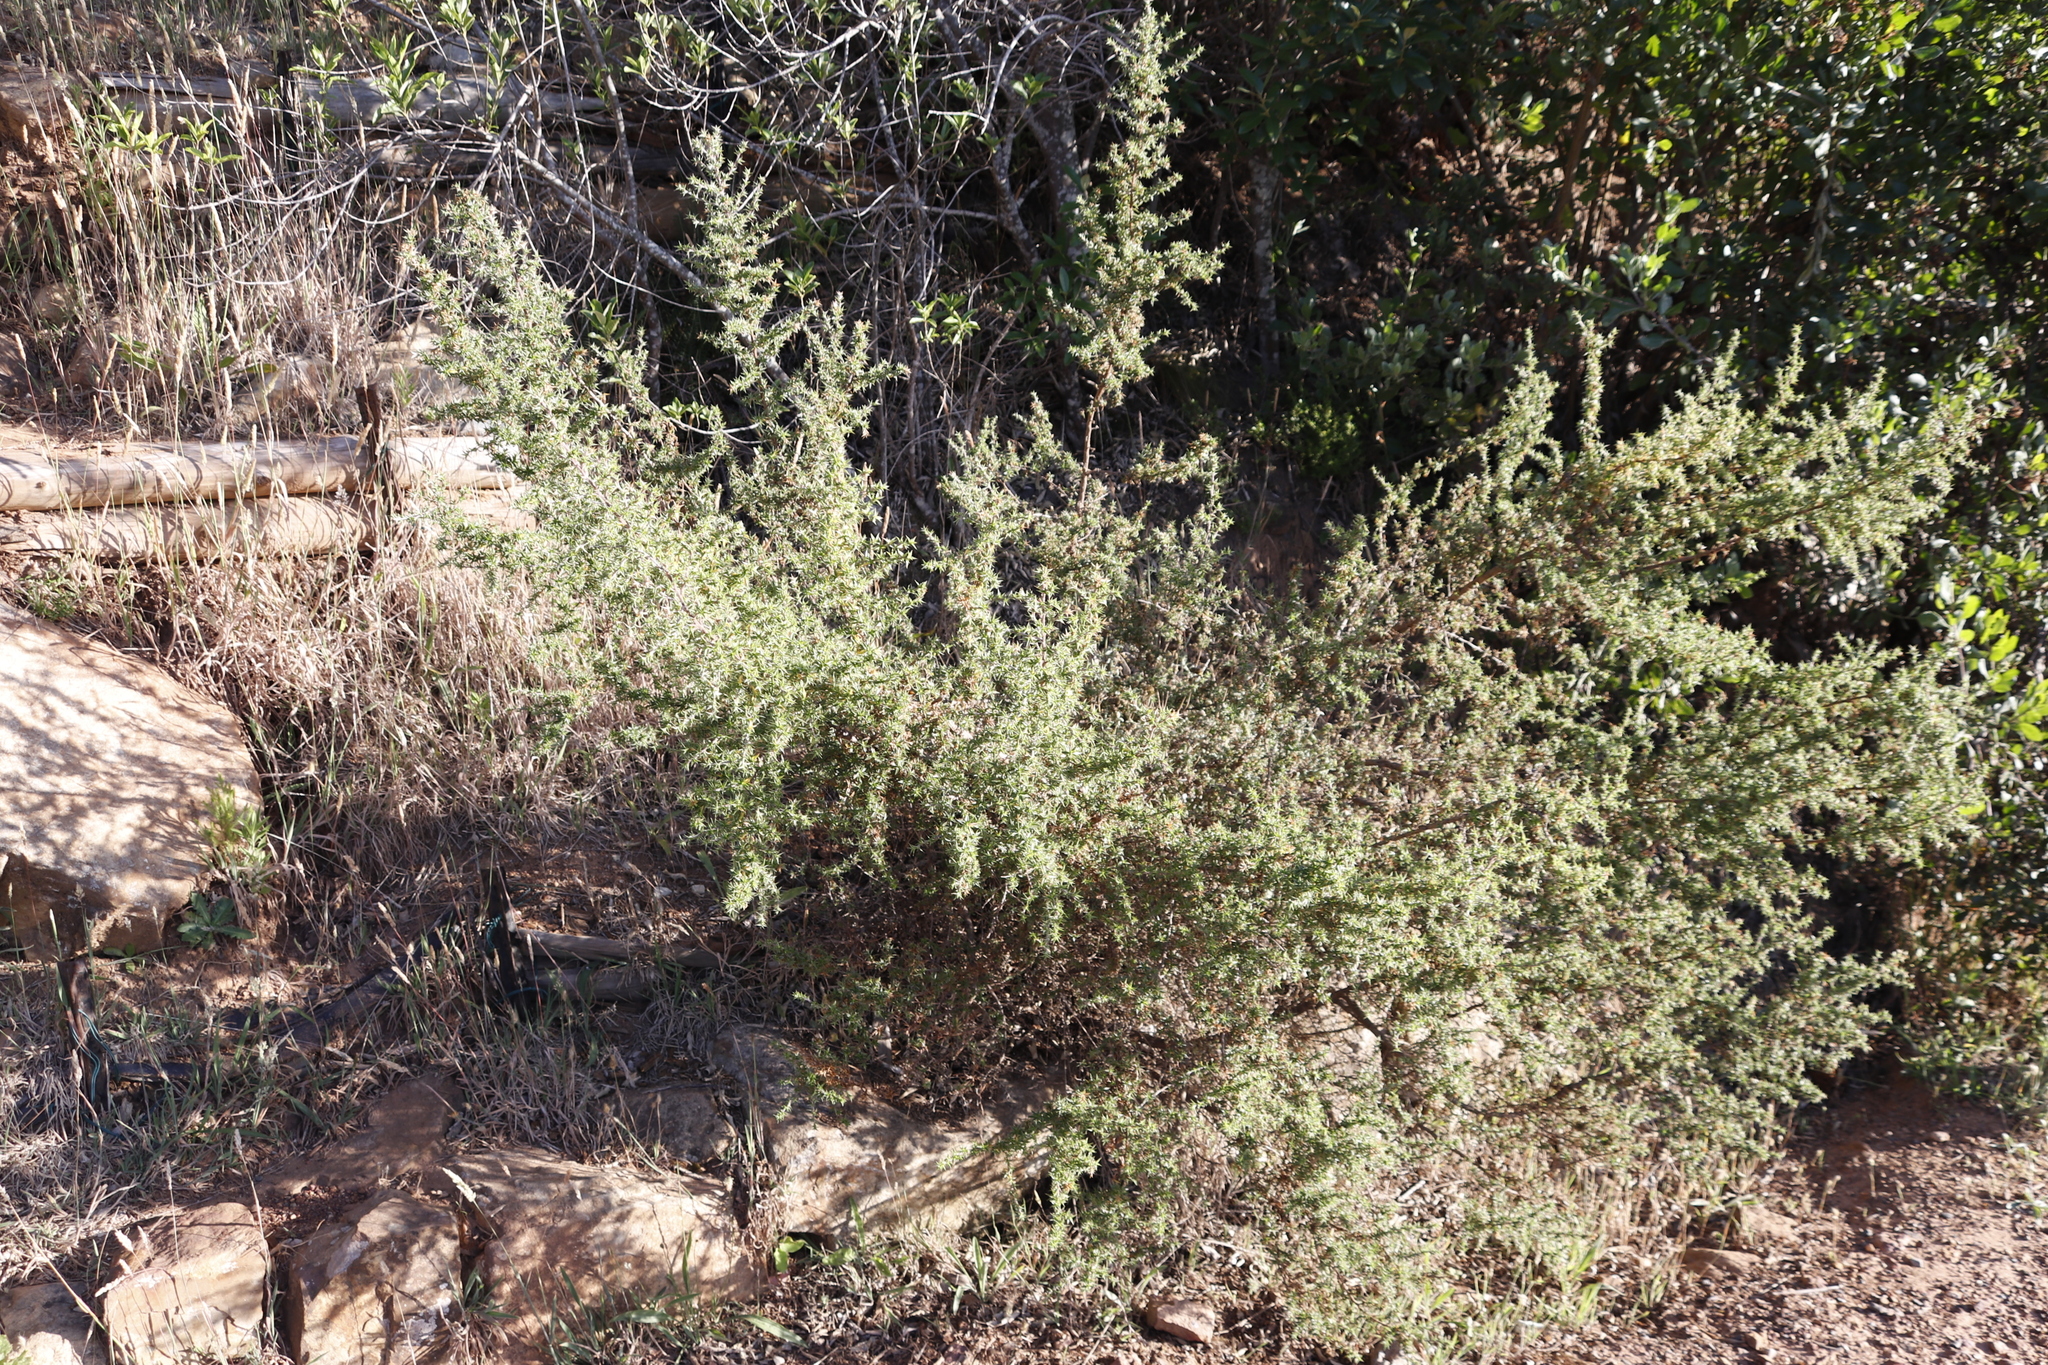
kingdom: Plantae
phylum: Tracheophyta
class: Magnoliopsida
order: Rosales
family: Rosaceae
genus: Cliffortia
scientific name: Cliffortia ruscifolia
